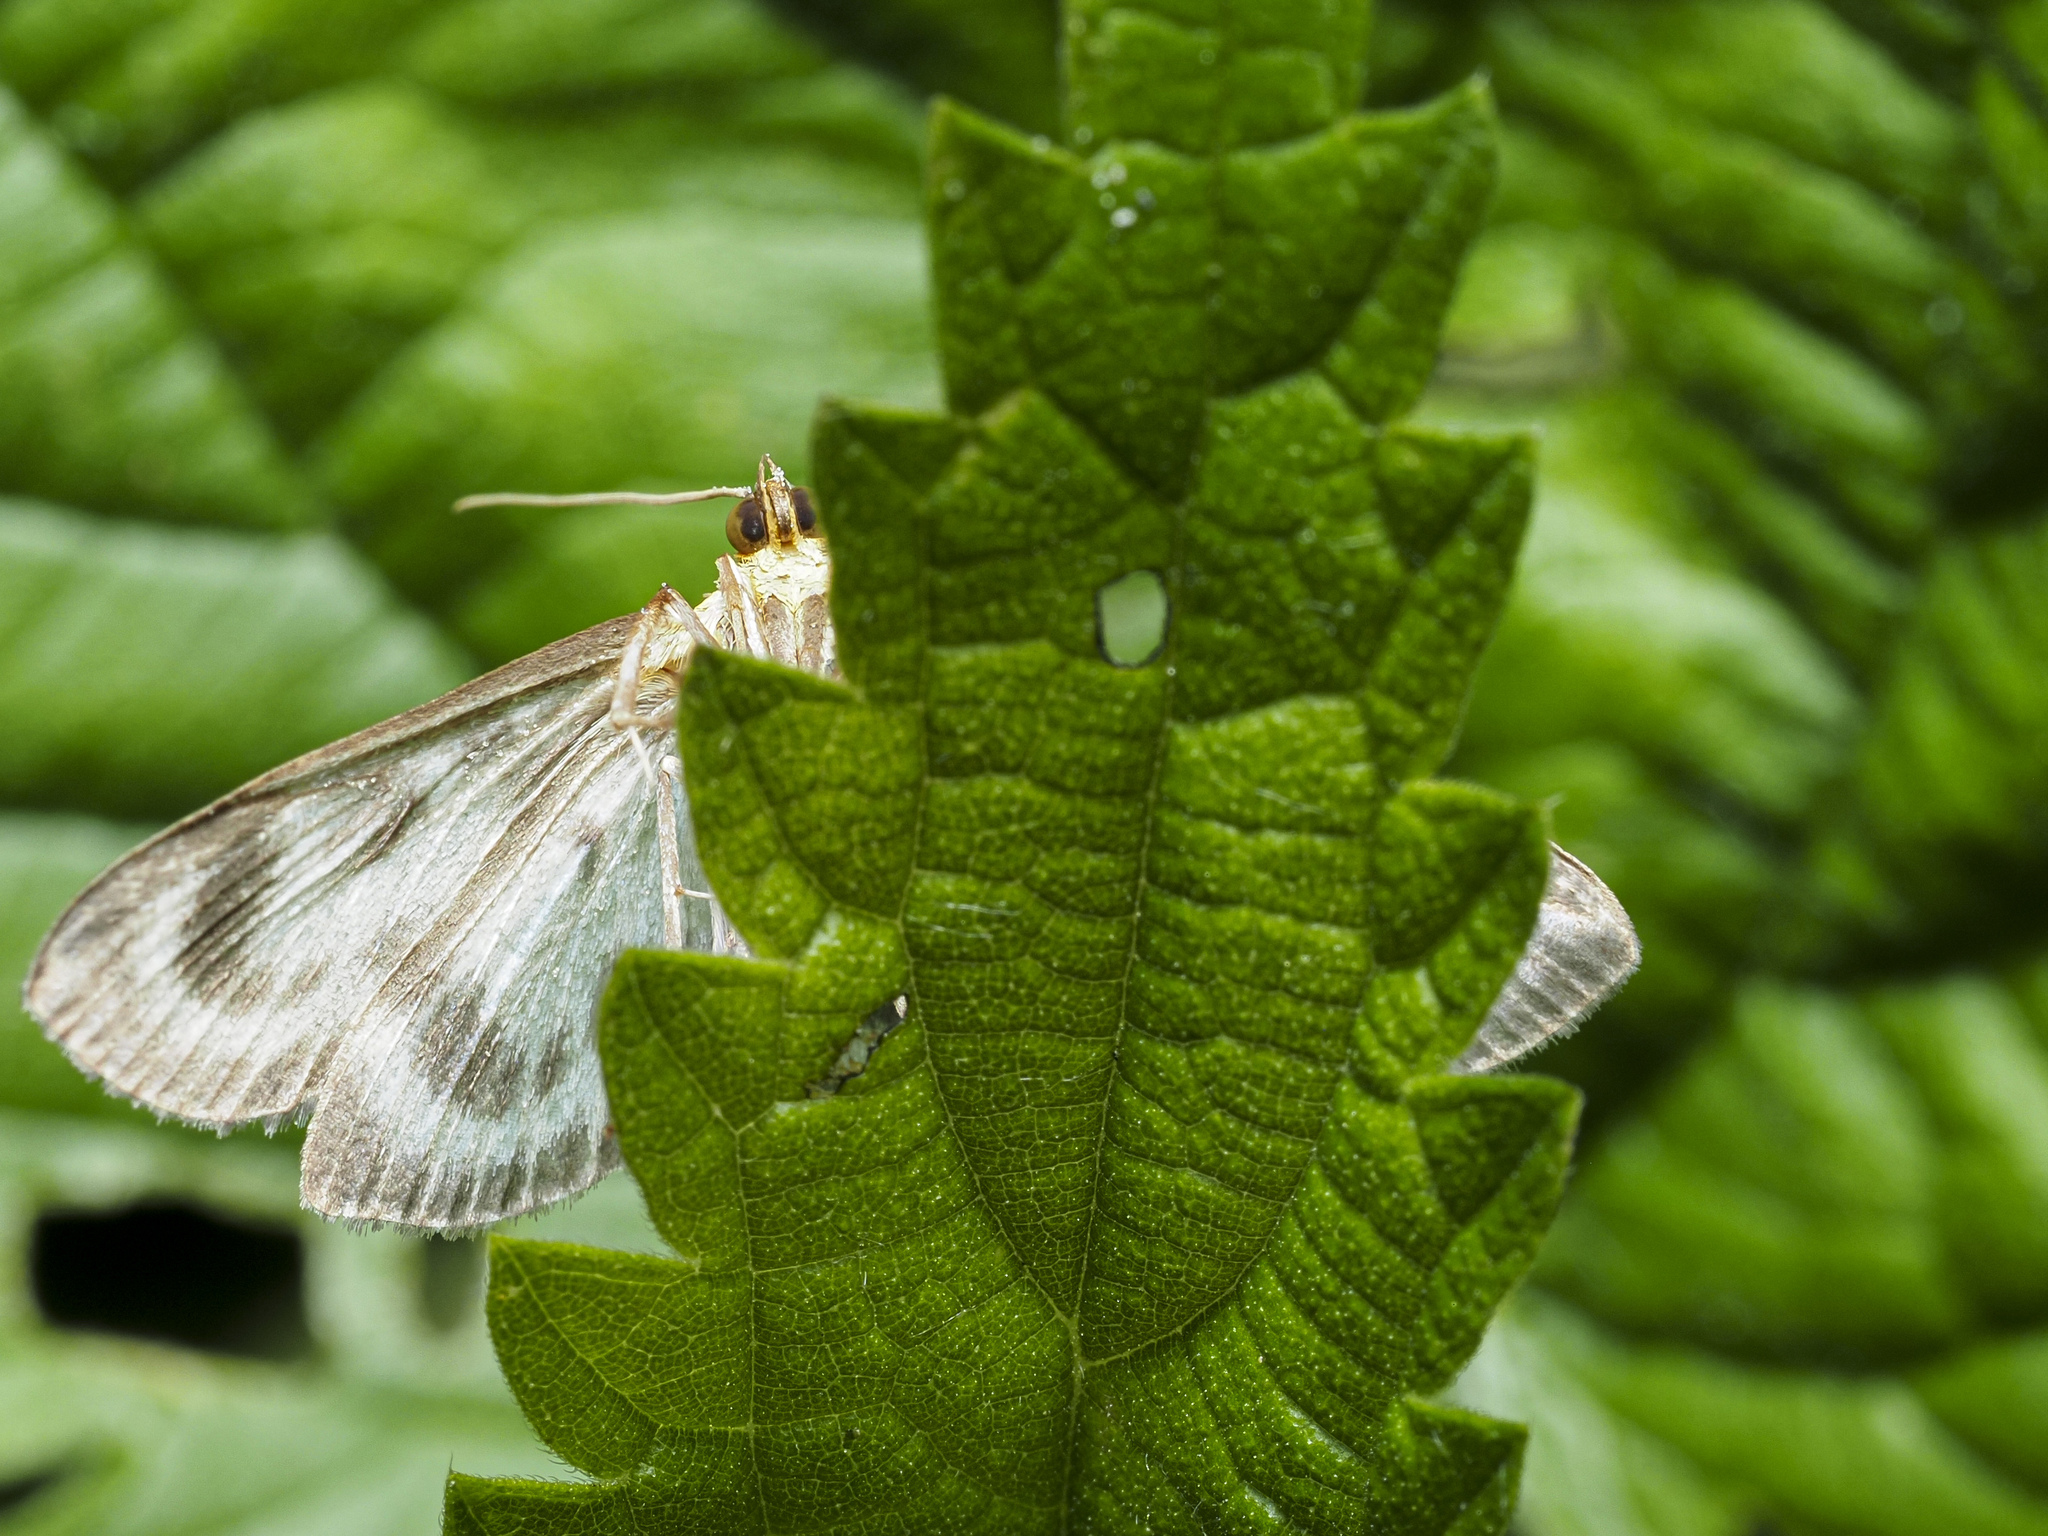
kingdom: Animalia
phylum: Arthropoda
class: Insecta
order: Lepidoptera
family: Crambidae
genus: Anania
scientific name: Anania hortulata
